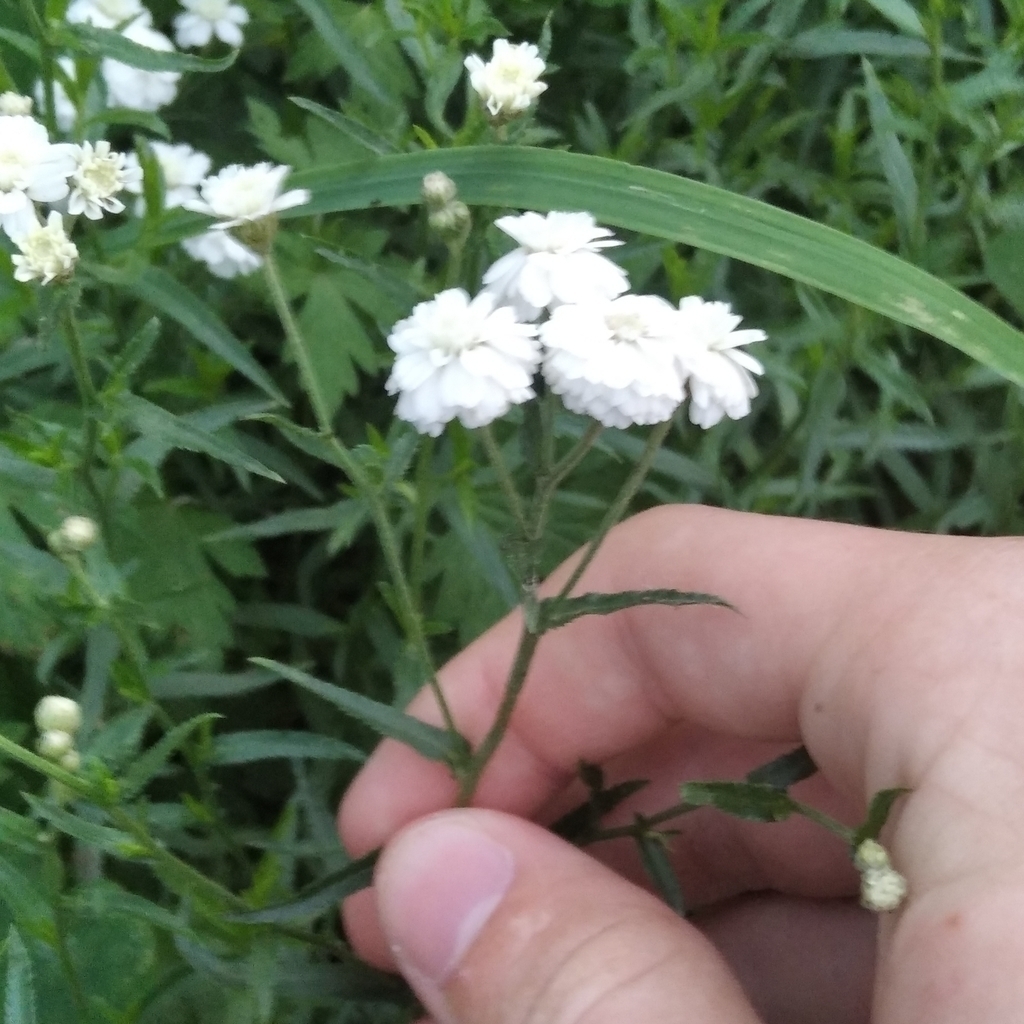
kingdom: Plantae
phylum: Tracheophyta
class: Magnoliopsida
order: Asterales
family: Asteraceae
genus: Achillea
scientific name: Achillea ptarmica
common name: Sneezeweed
